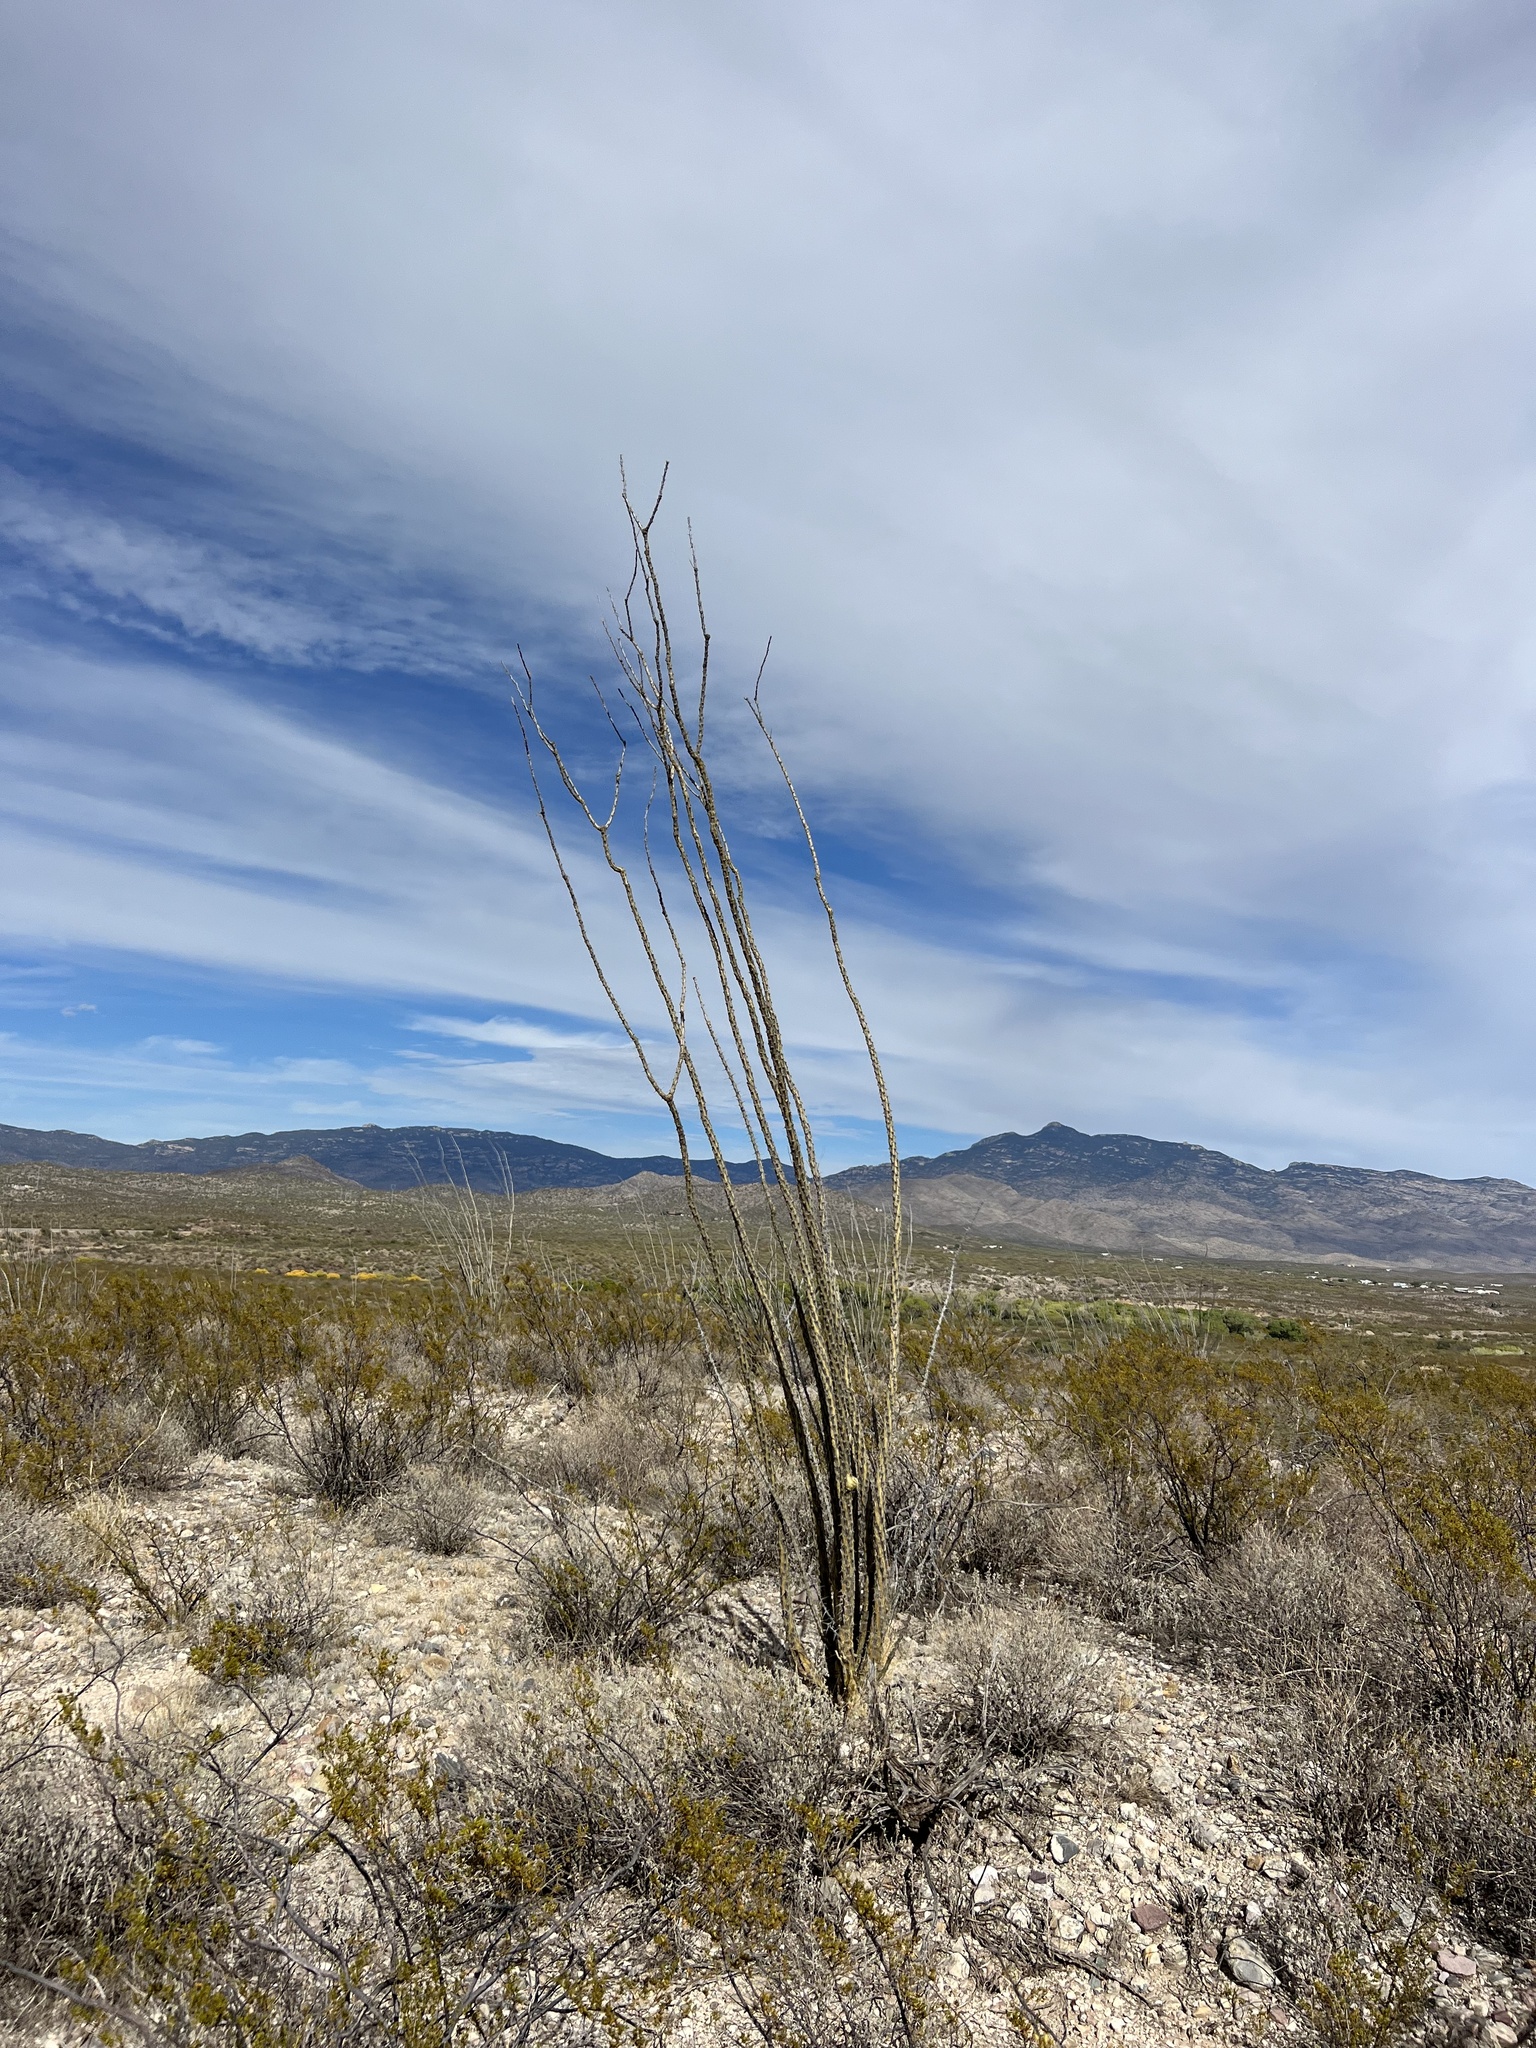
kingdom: Plantae
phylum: Tracheophyta
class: Magnoliopsida
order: Ericales
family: Fouquieriaceae
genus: Fouquieria
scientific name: Fouquieria splendens
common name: Vine-cactus
